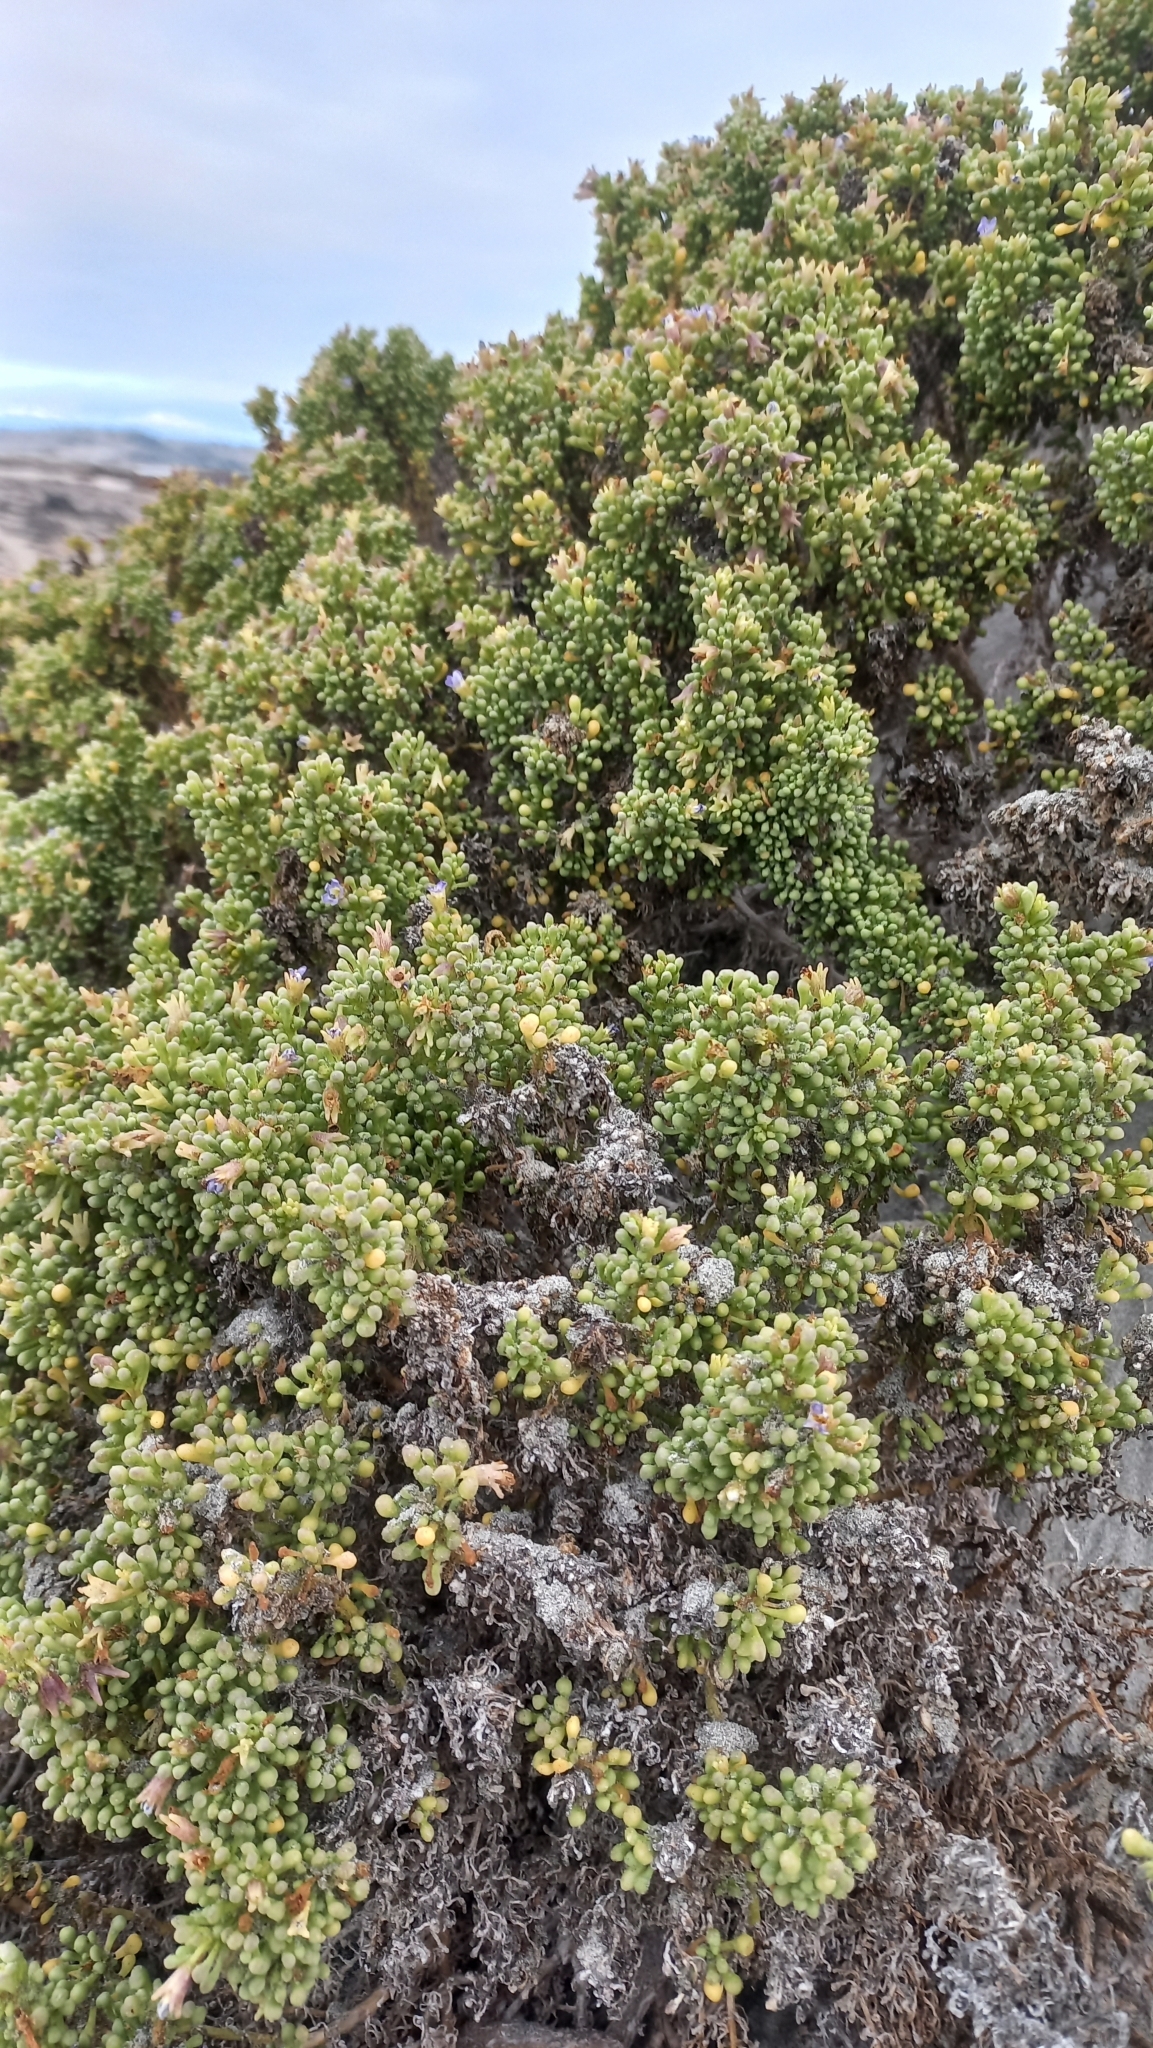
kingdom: Plantae
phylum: Tracheophyta
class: Magnoliopsida
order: Solanales
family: Solanaceae
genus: Nolana
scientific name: Nolana divaricata
